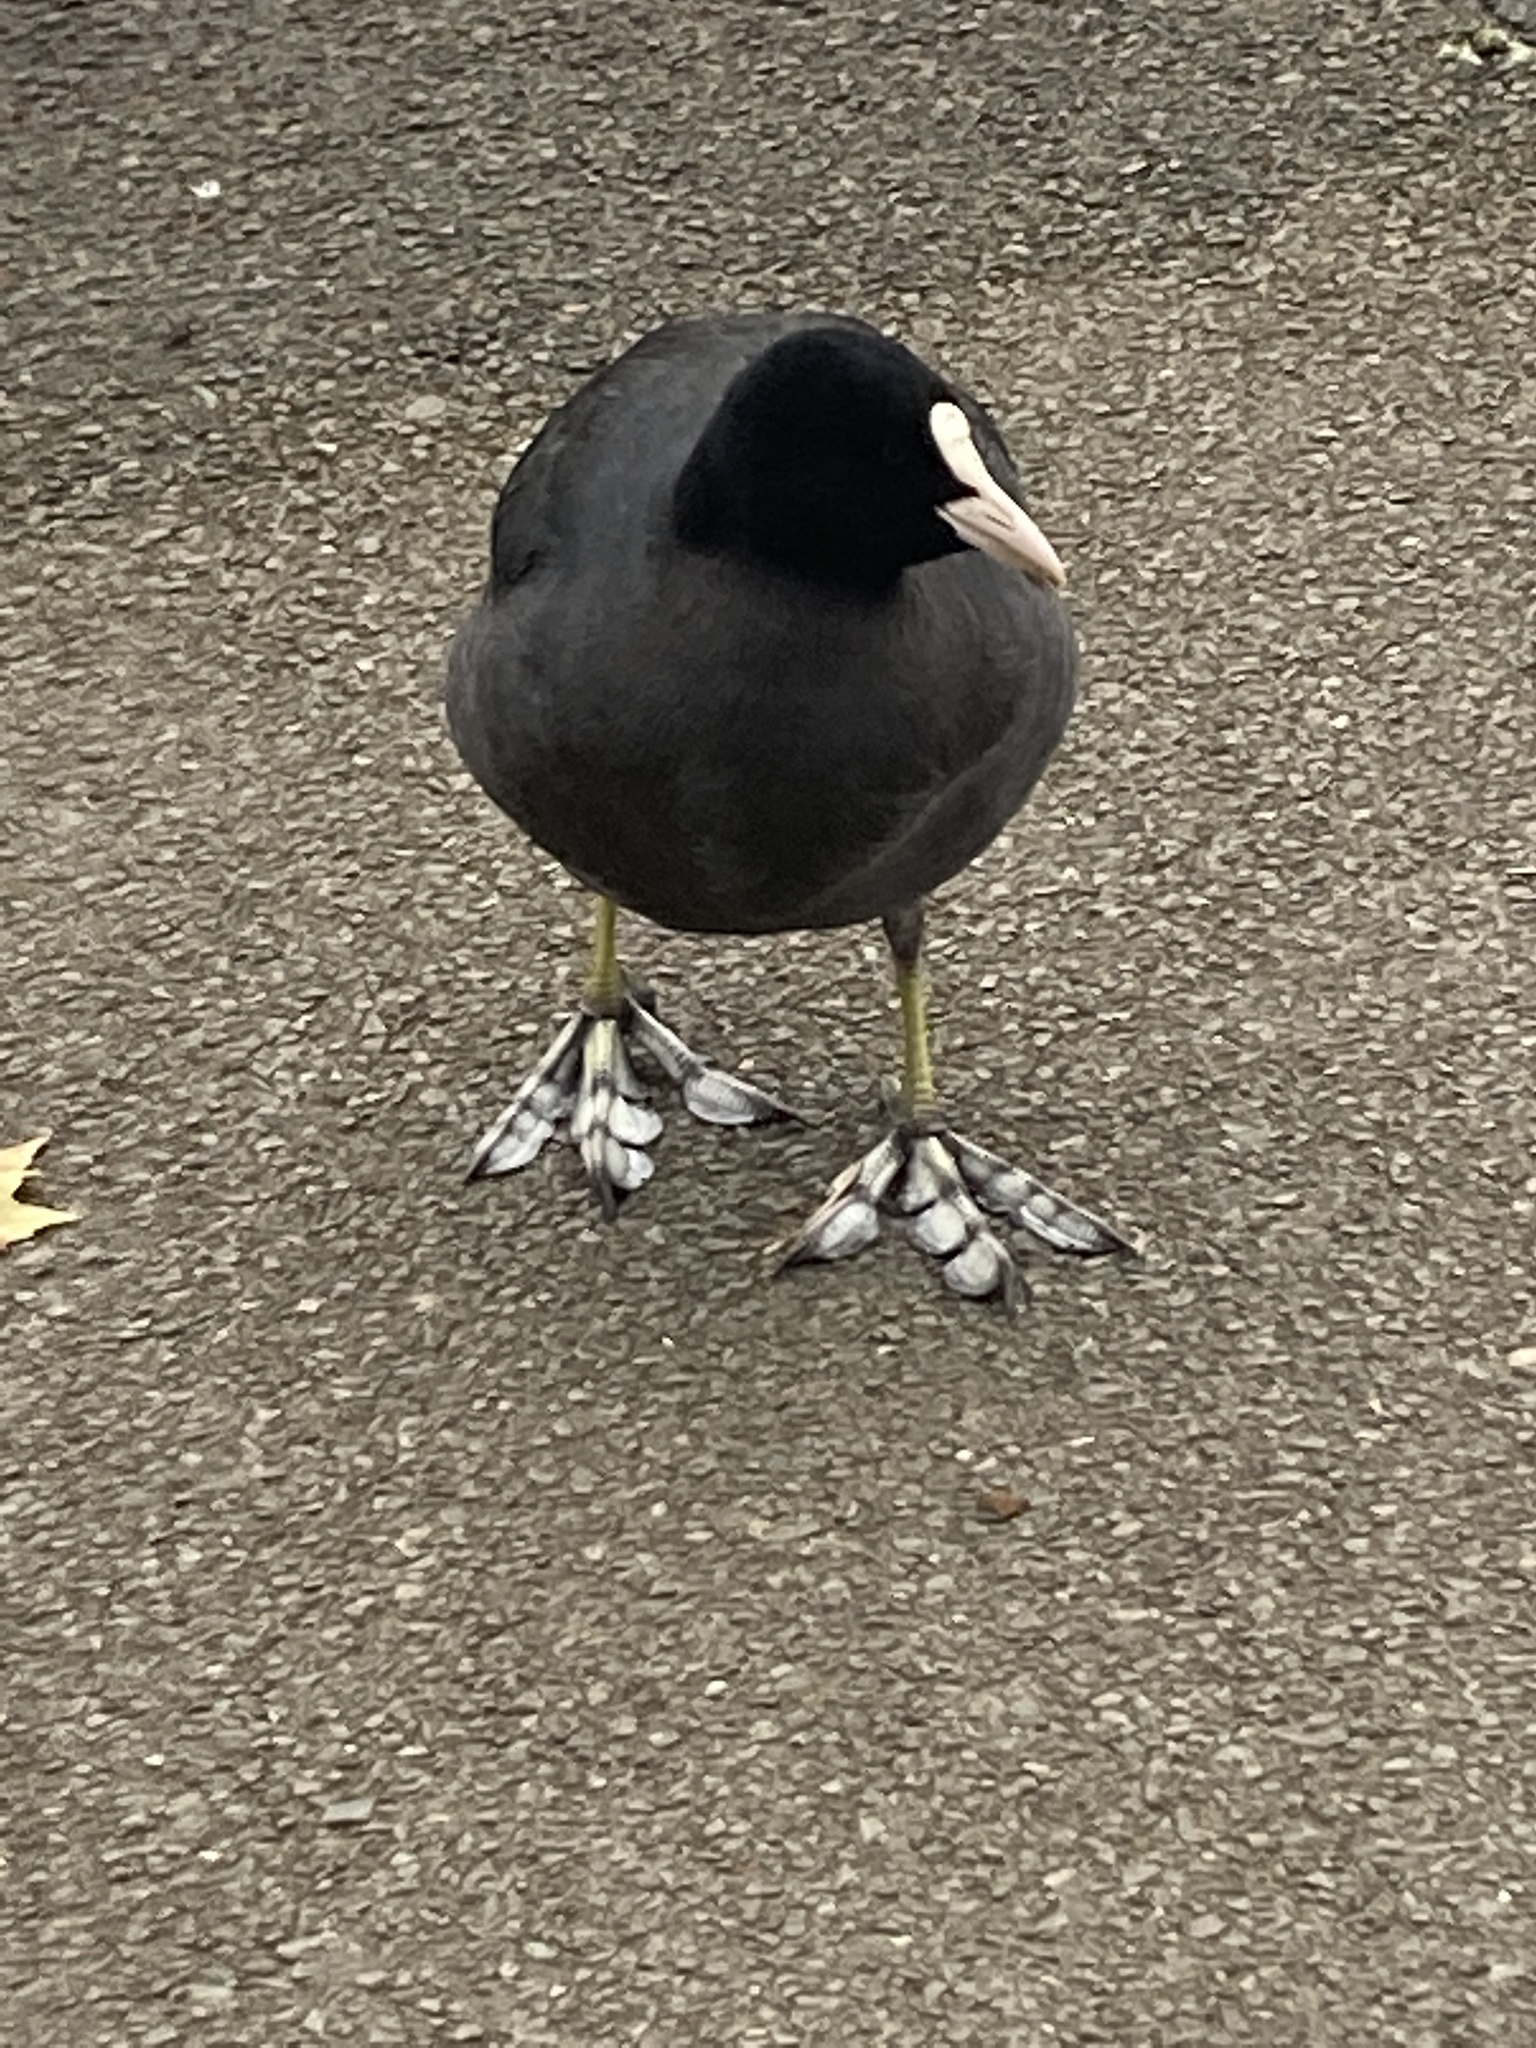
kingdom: Animalia
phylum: Chordata
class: Aves
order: Gruiformes
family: Rallidae
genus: Fulica
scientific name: Fulica atra
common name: Eurasian coot
